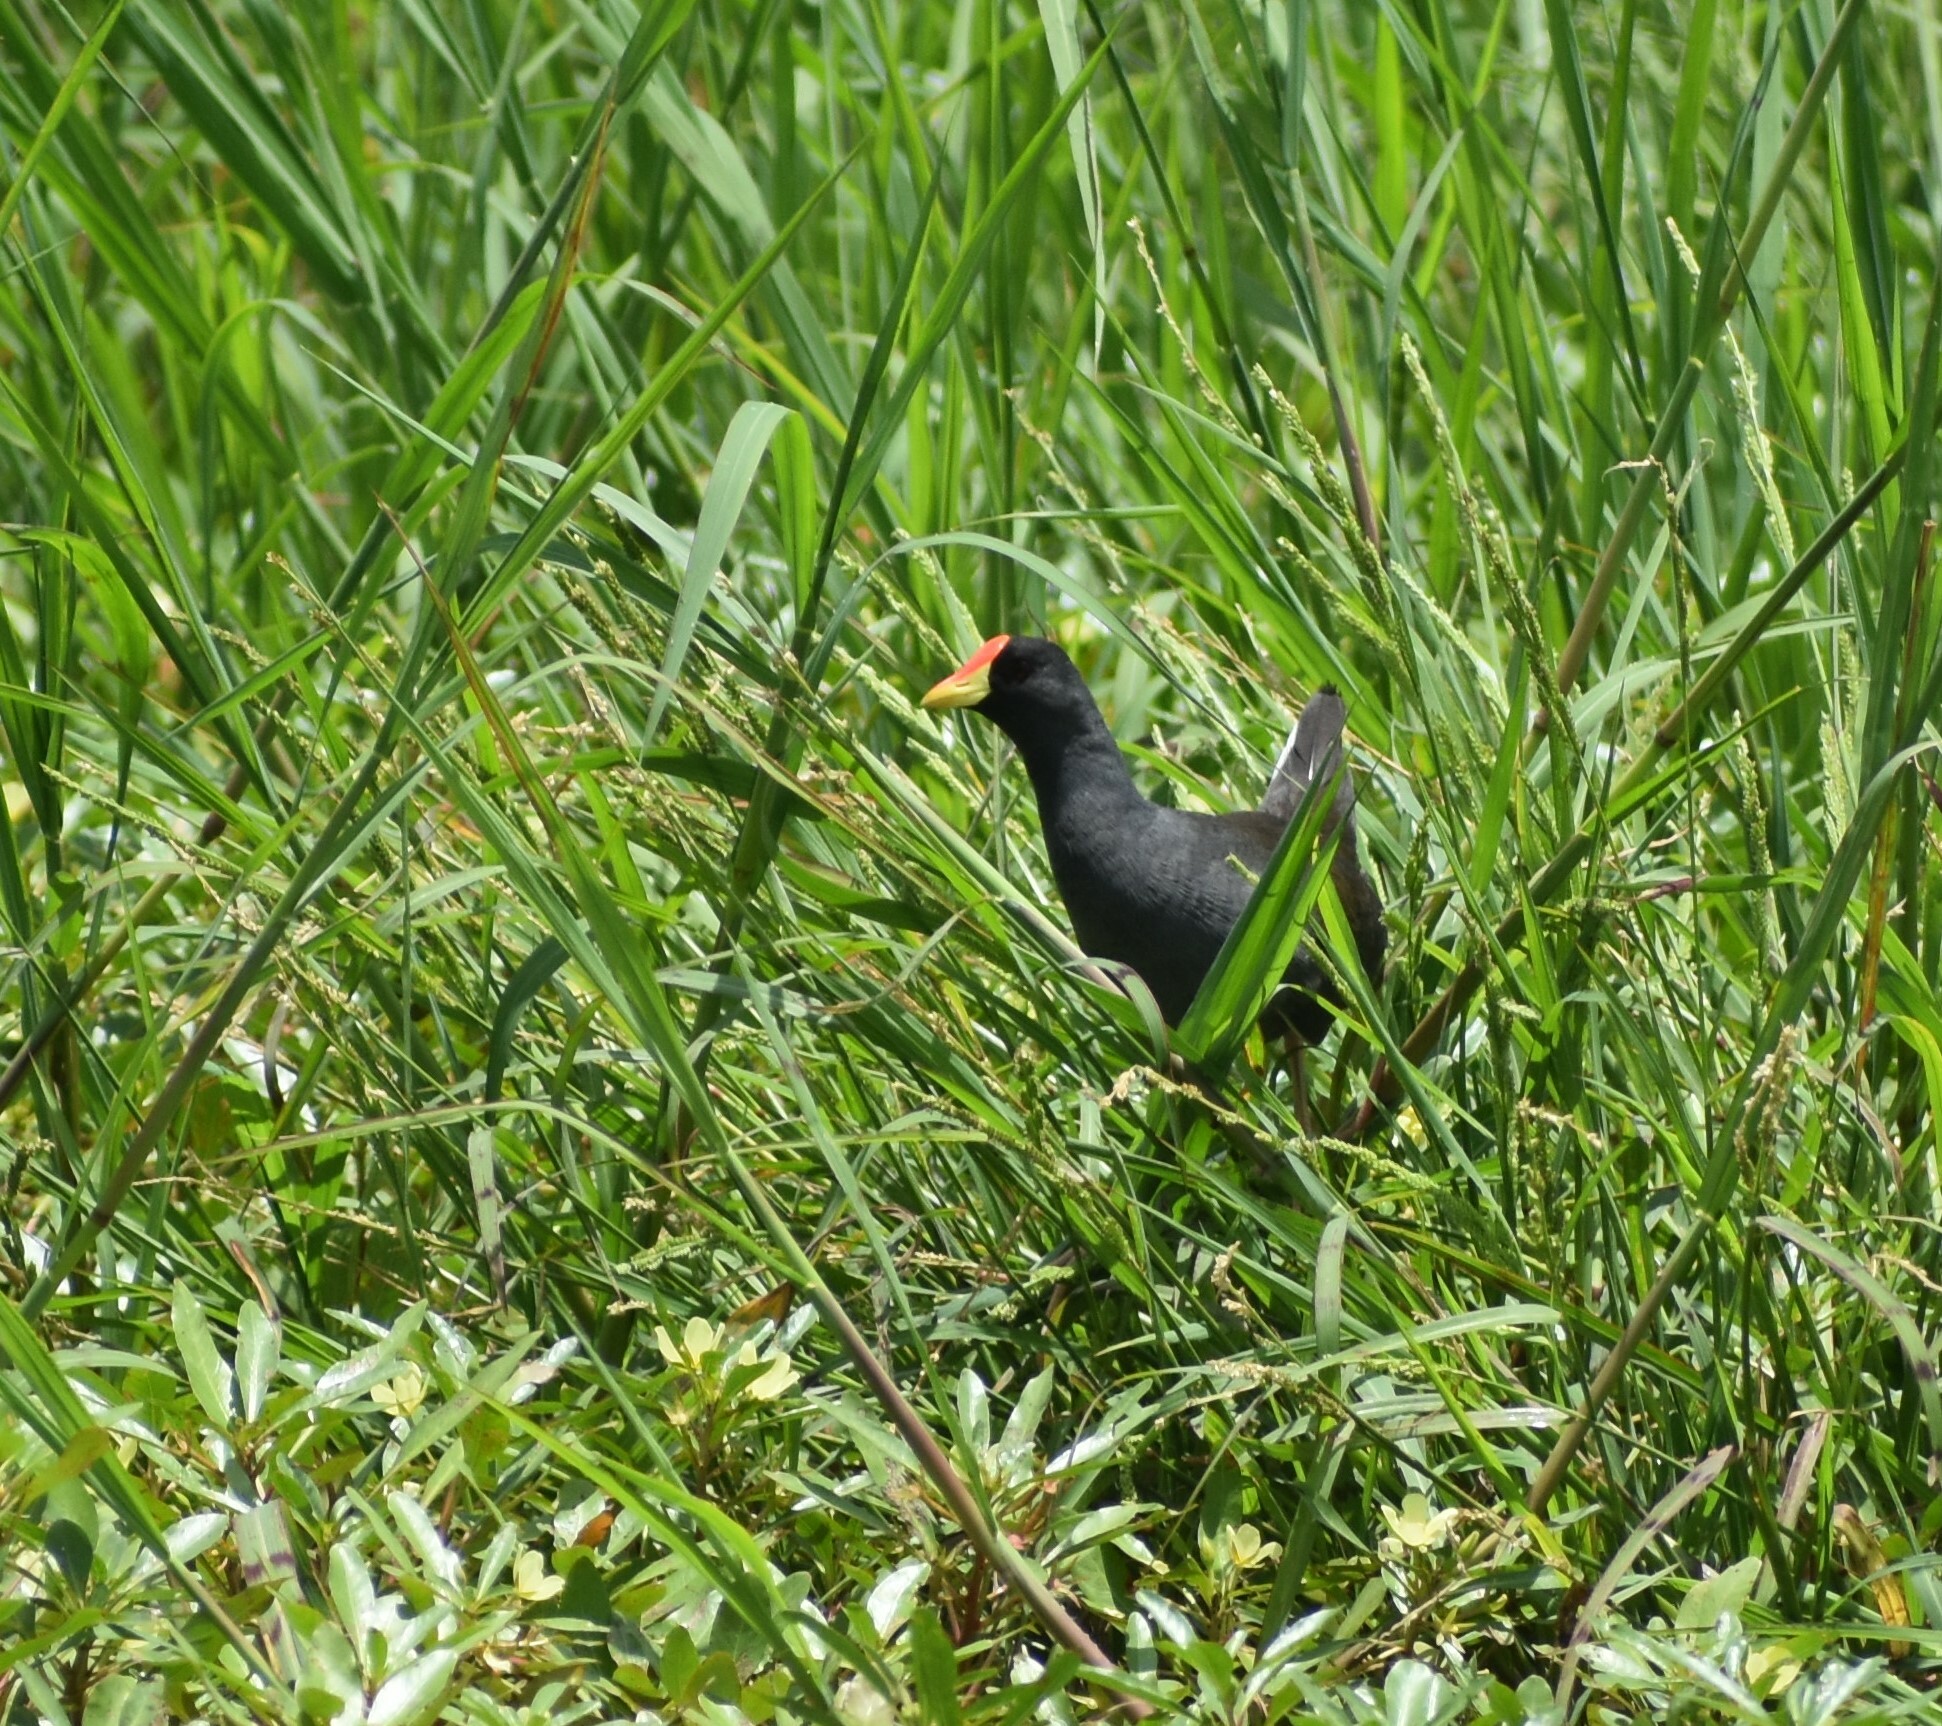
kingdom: Animalia
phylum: Chordata
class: Aves
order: Gruiformes
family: Rallidae
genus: Gallinula
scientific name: Gallinula angulata
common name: Lesser moorhen
